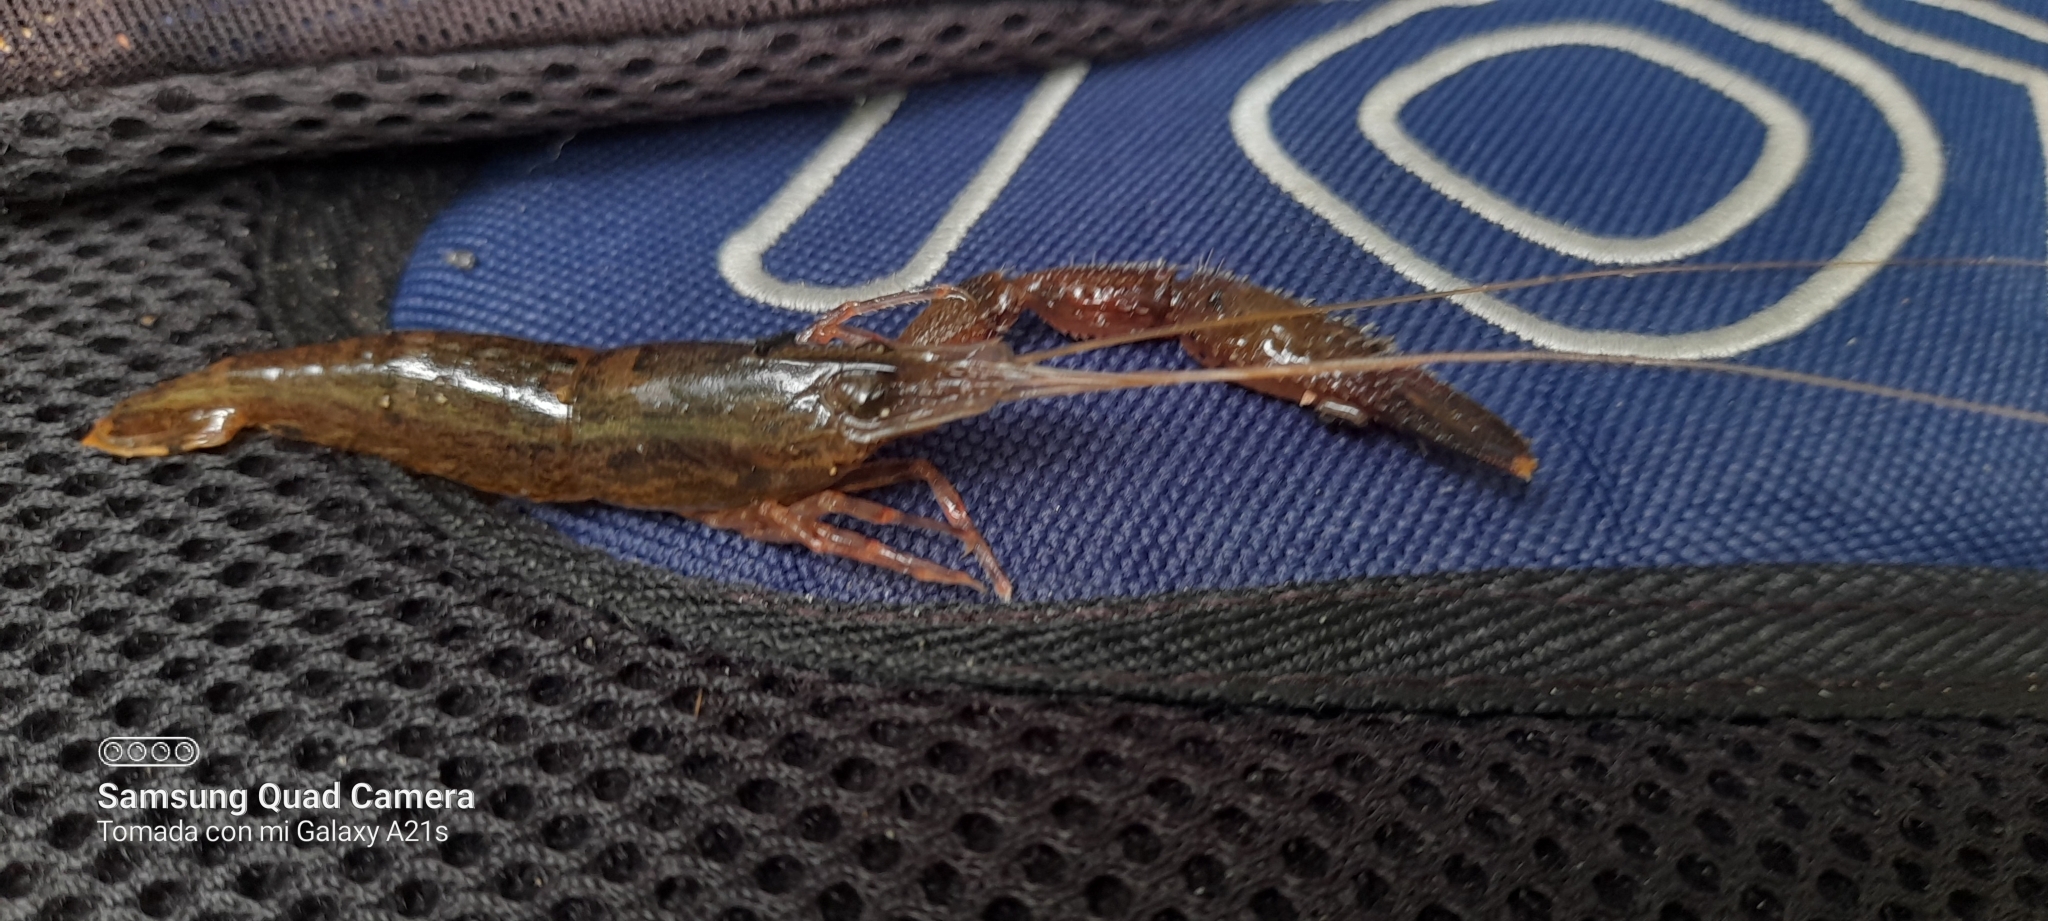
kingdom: Animalia
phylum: Arthropoda
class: Malacostraca
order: Decapoda
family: Palaemonidae
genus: Macrobrachium
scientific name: Macrobrachium digueti
